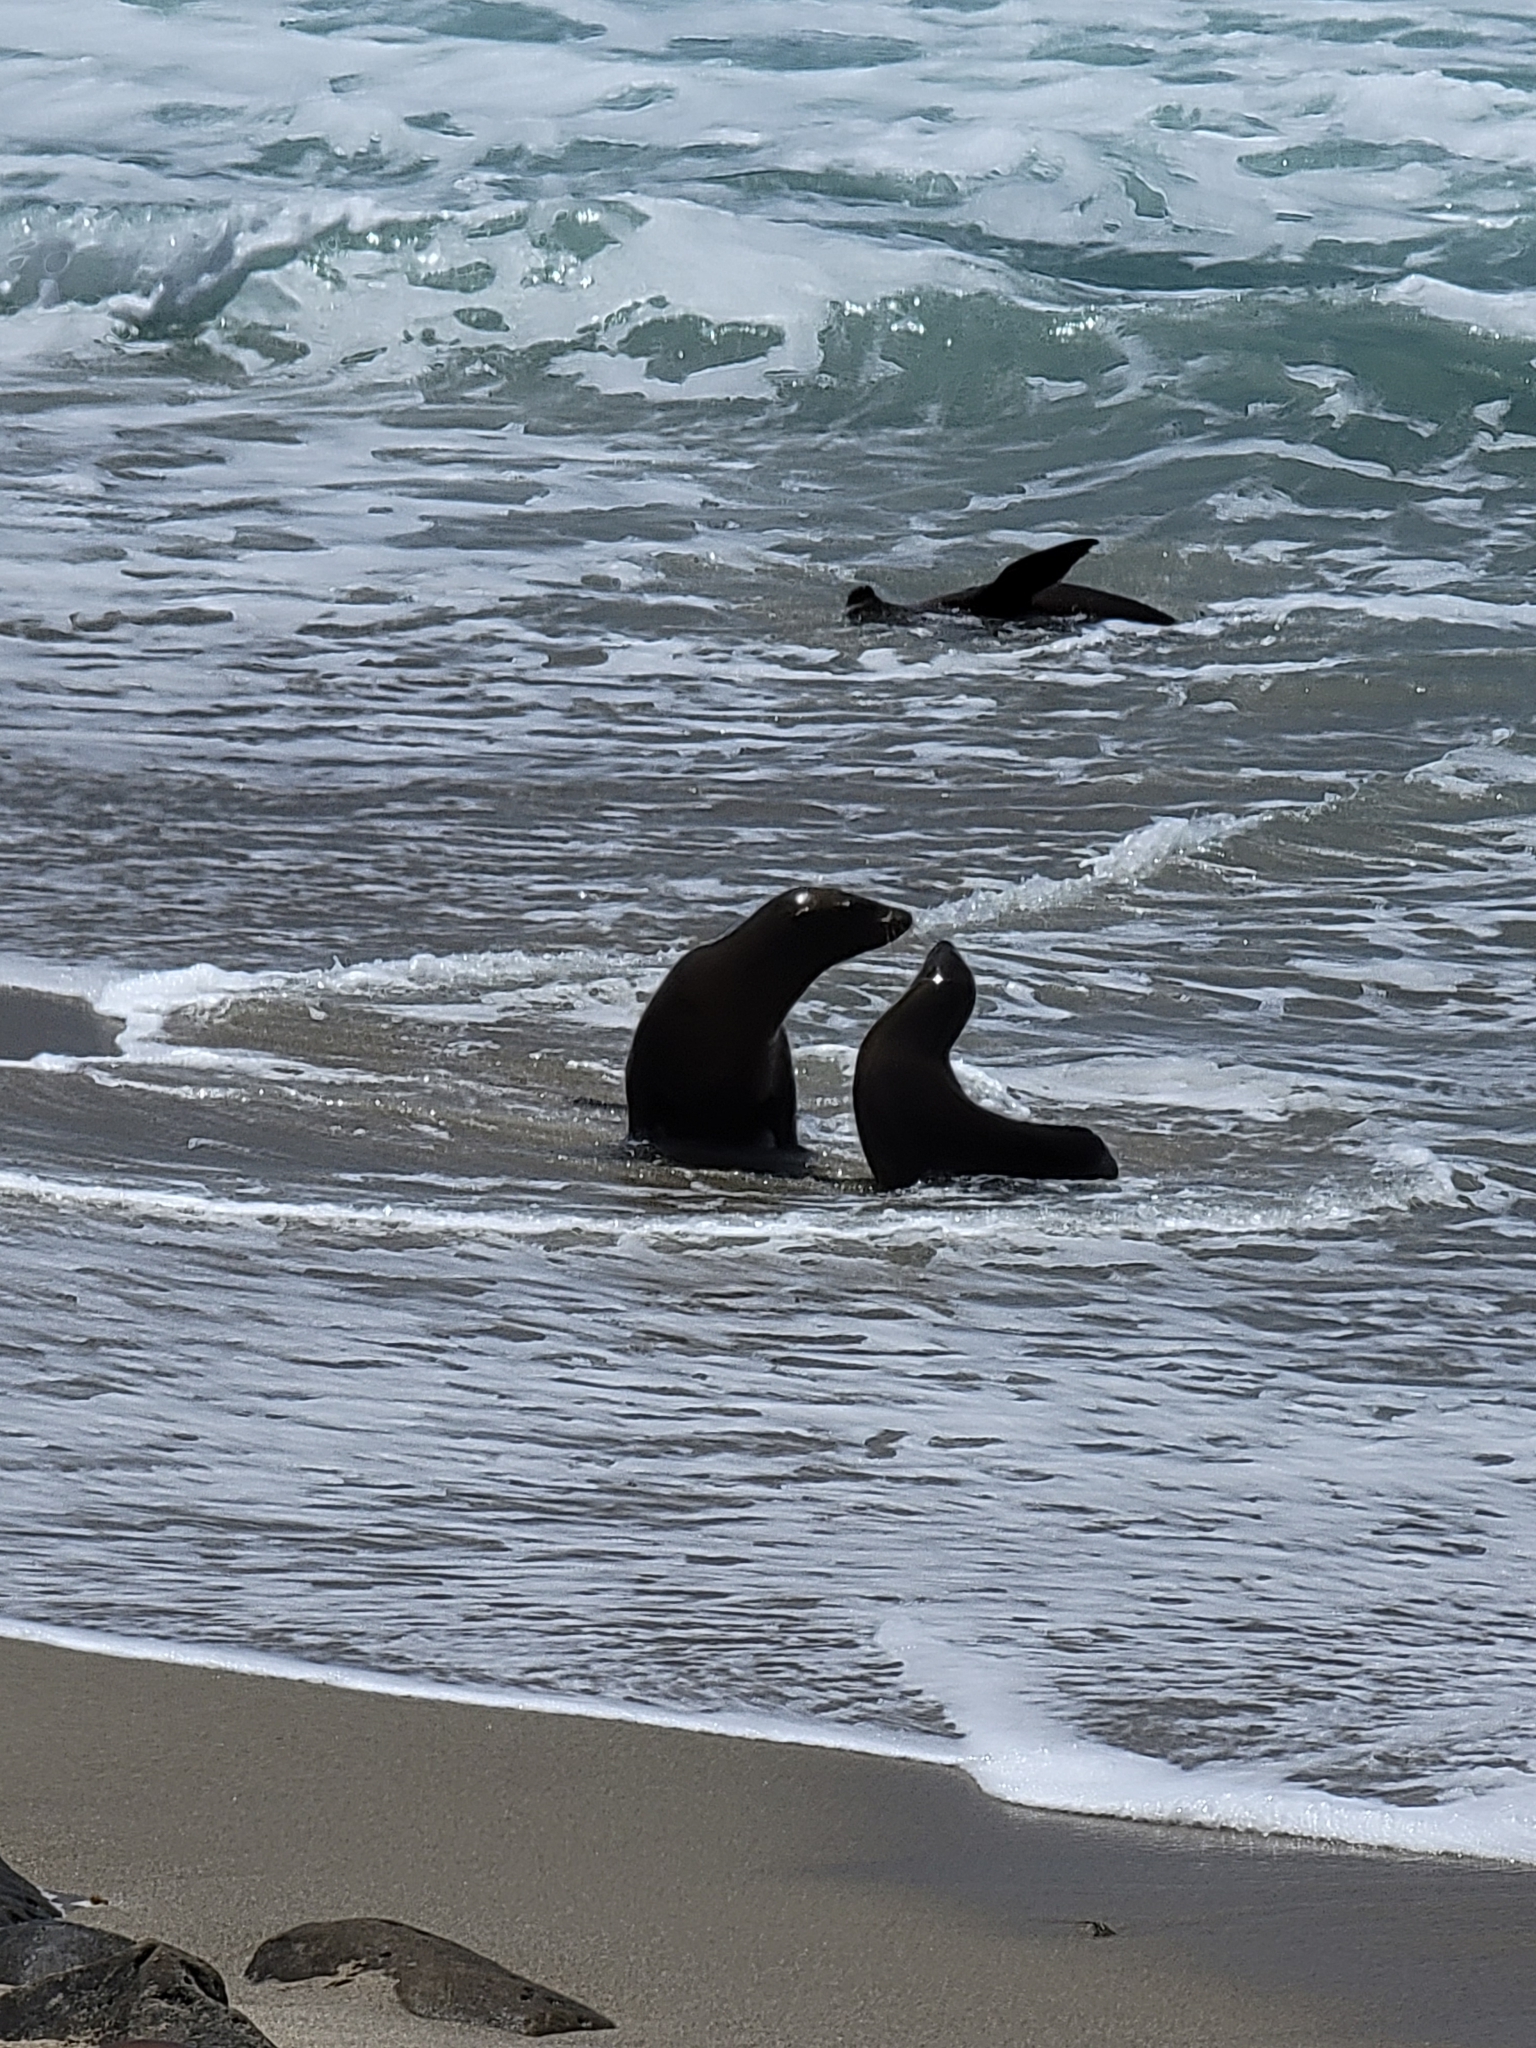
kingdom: Animalia
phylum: Chordata
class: Mammalia
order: Carnivora
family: Otariidae
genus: Zalophus
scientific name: Zalophus californianus
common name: California sea lion
